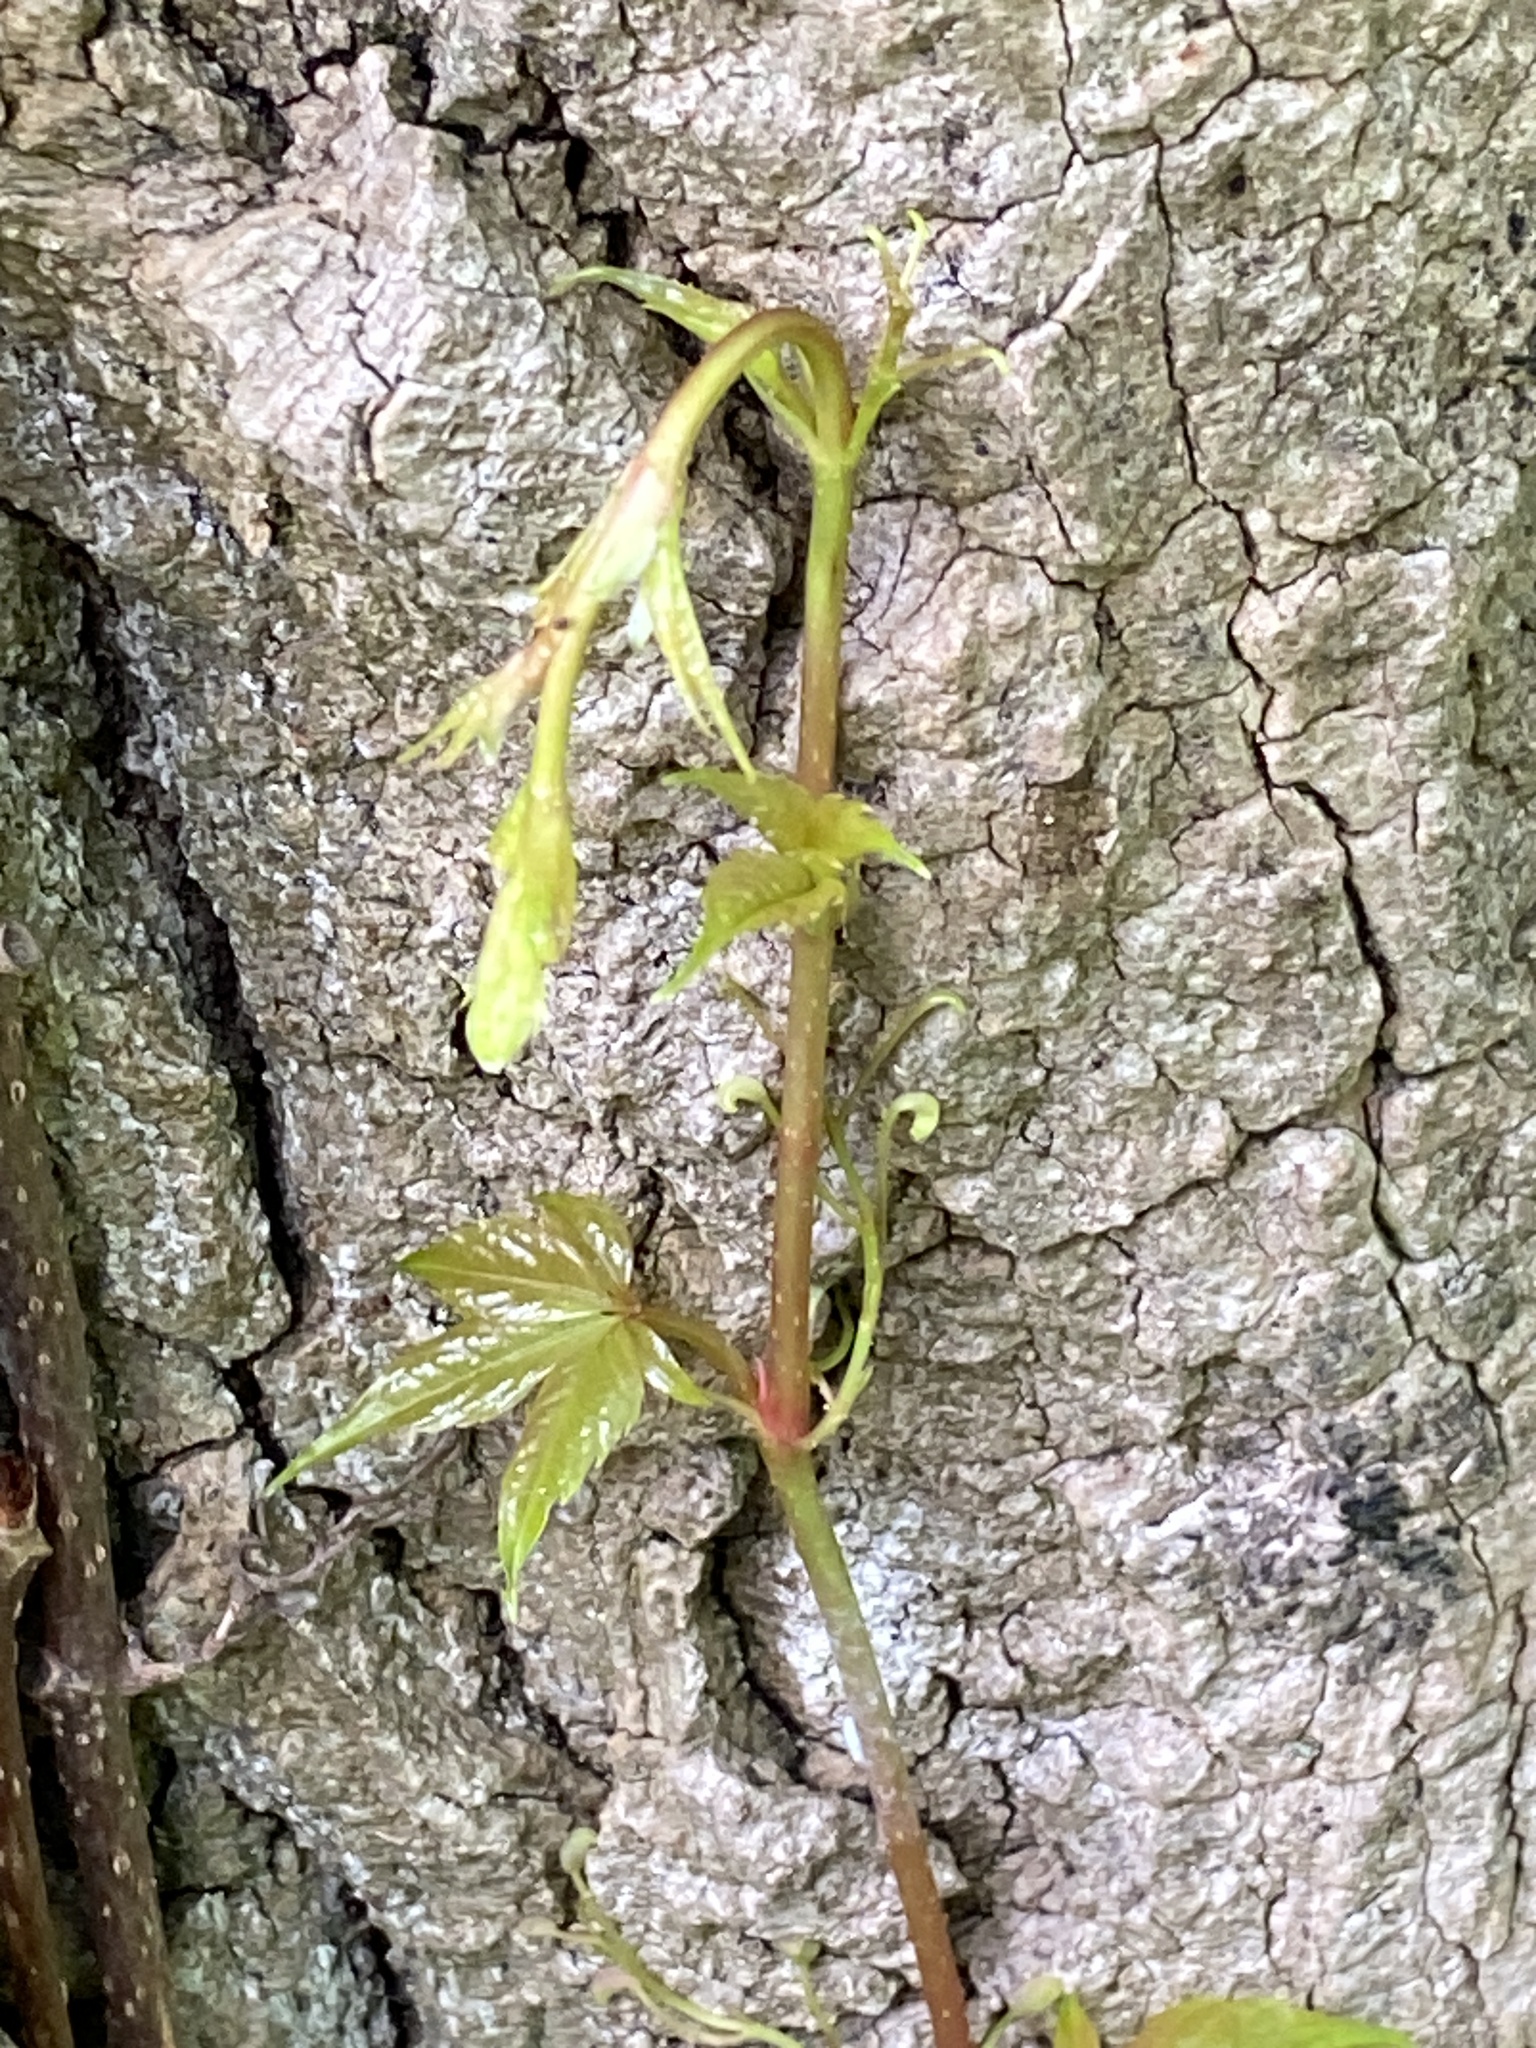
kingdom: Plantae
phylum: Tracheophyta
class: Magnoliopsida
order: Vitales
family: Vitaceae
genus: Parthenocissus
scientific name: Parthenocissus quinquefolia
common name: Virginia-creeper
